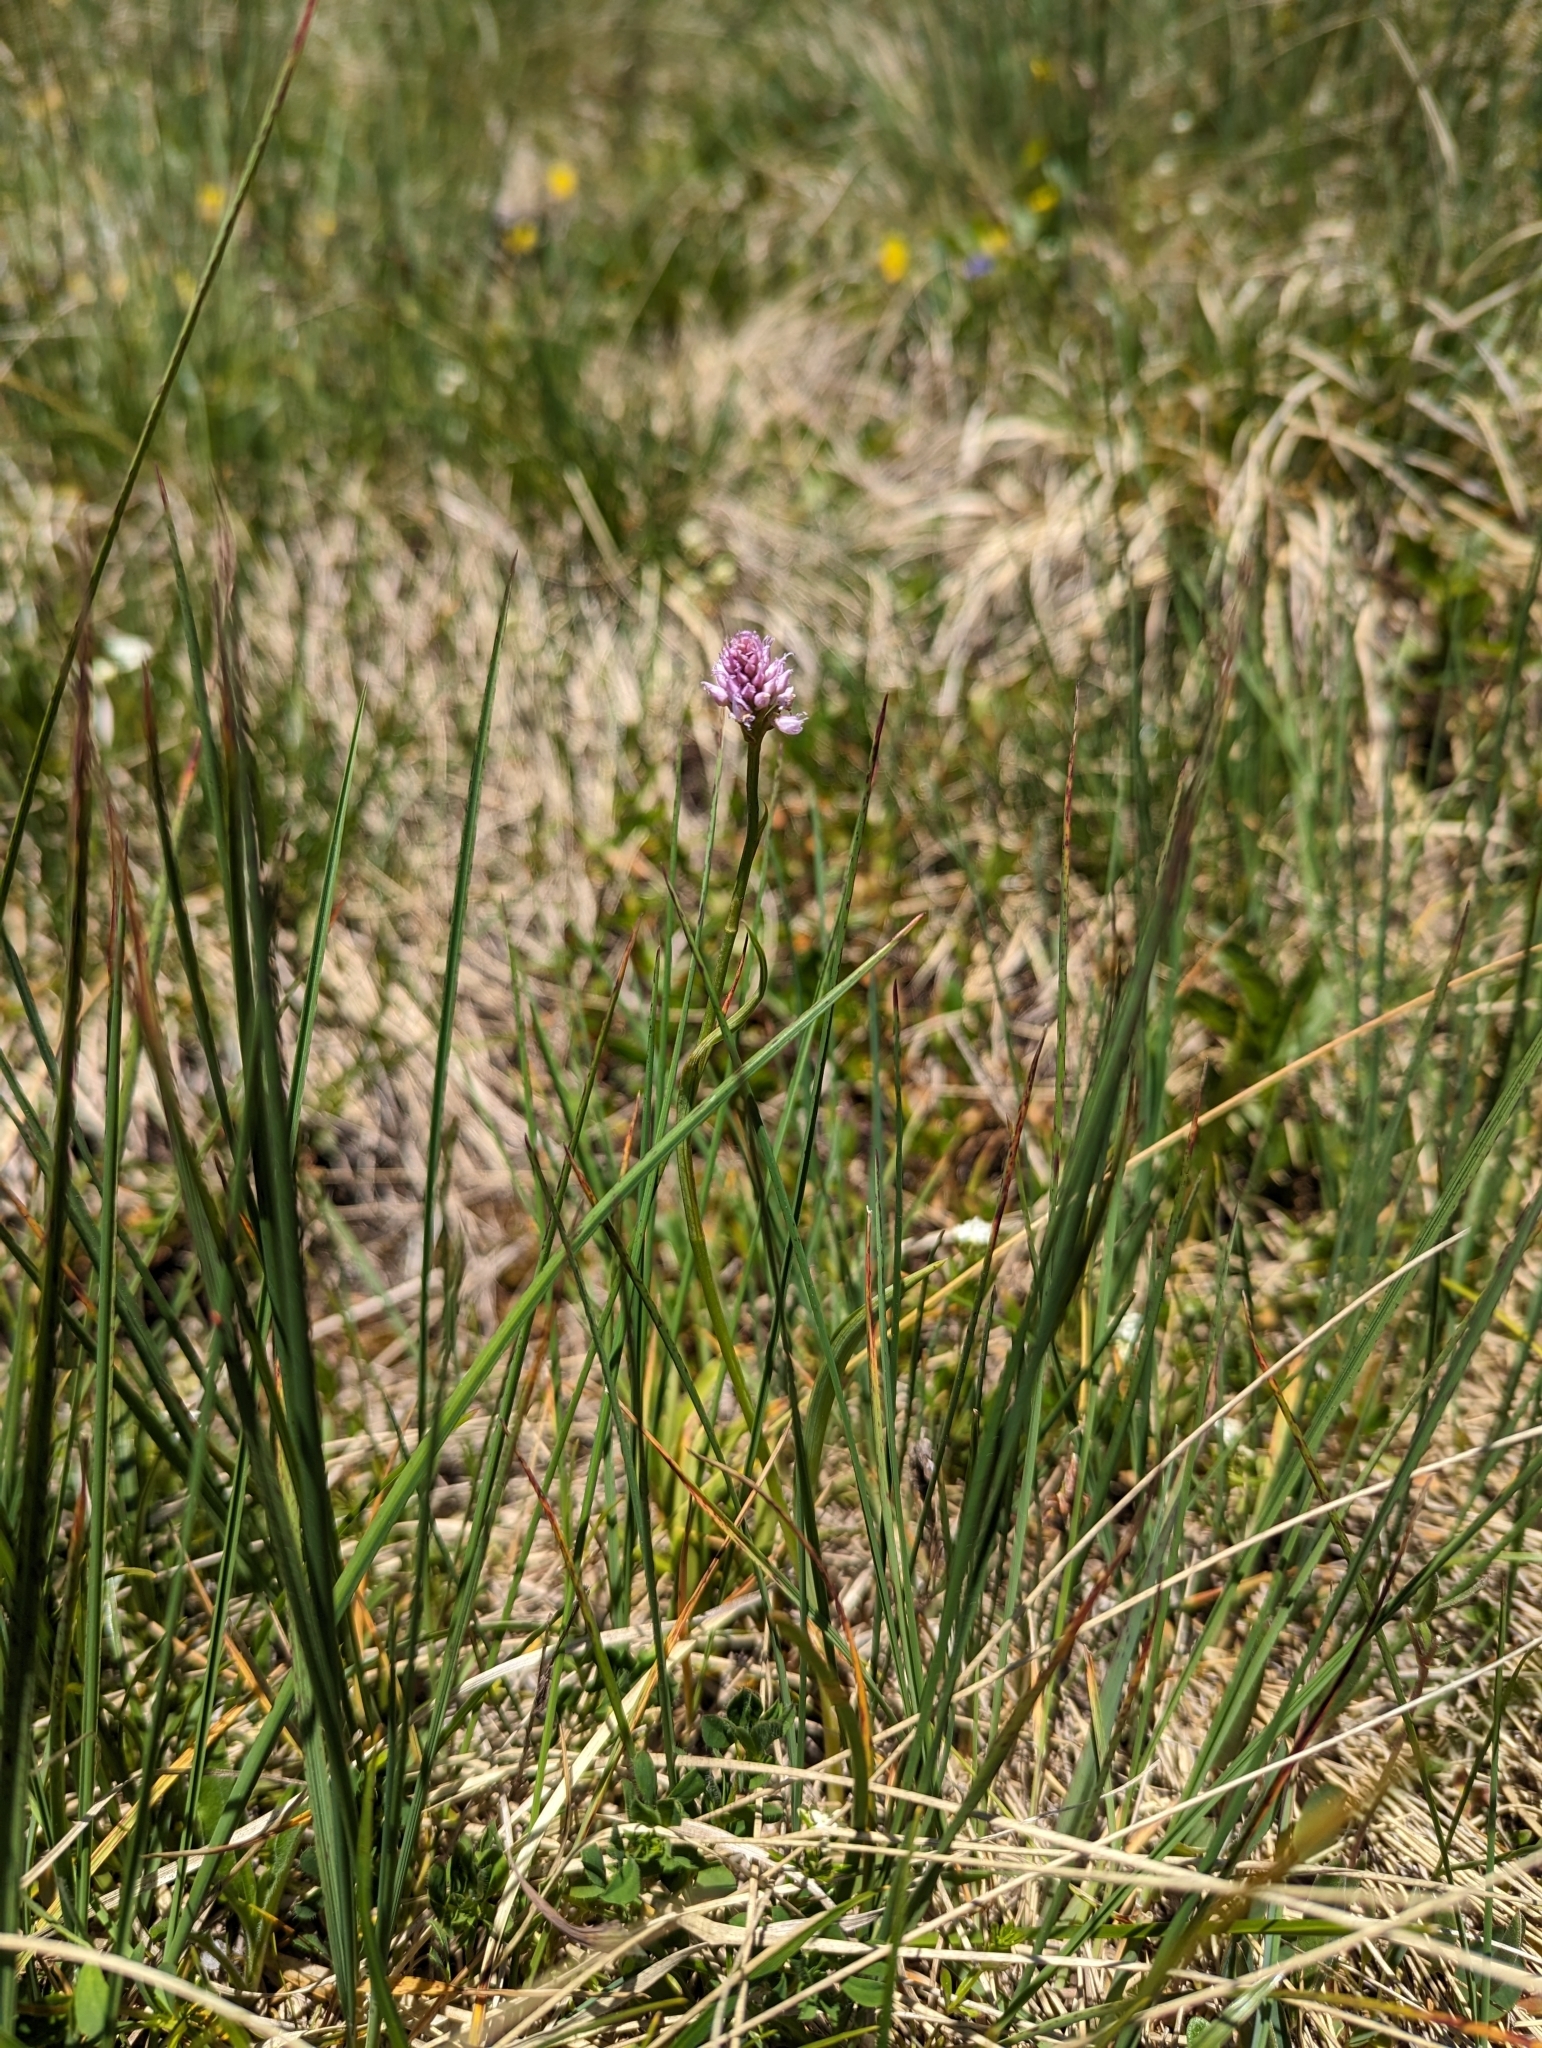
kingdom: Plantae
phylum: Tracheophyta
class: Liliopsida
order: Asparagales
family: Orchidaceae
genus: Traunsteinera
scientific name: Traunsteinera globosa
